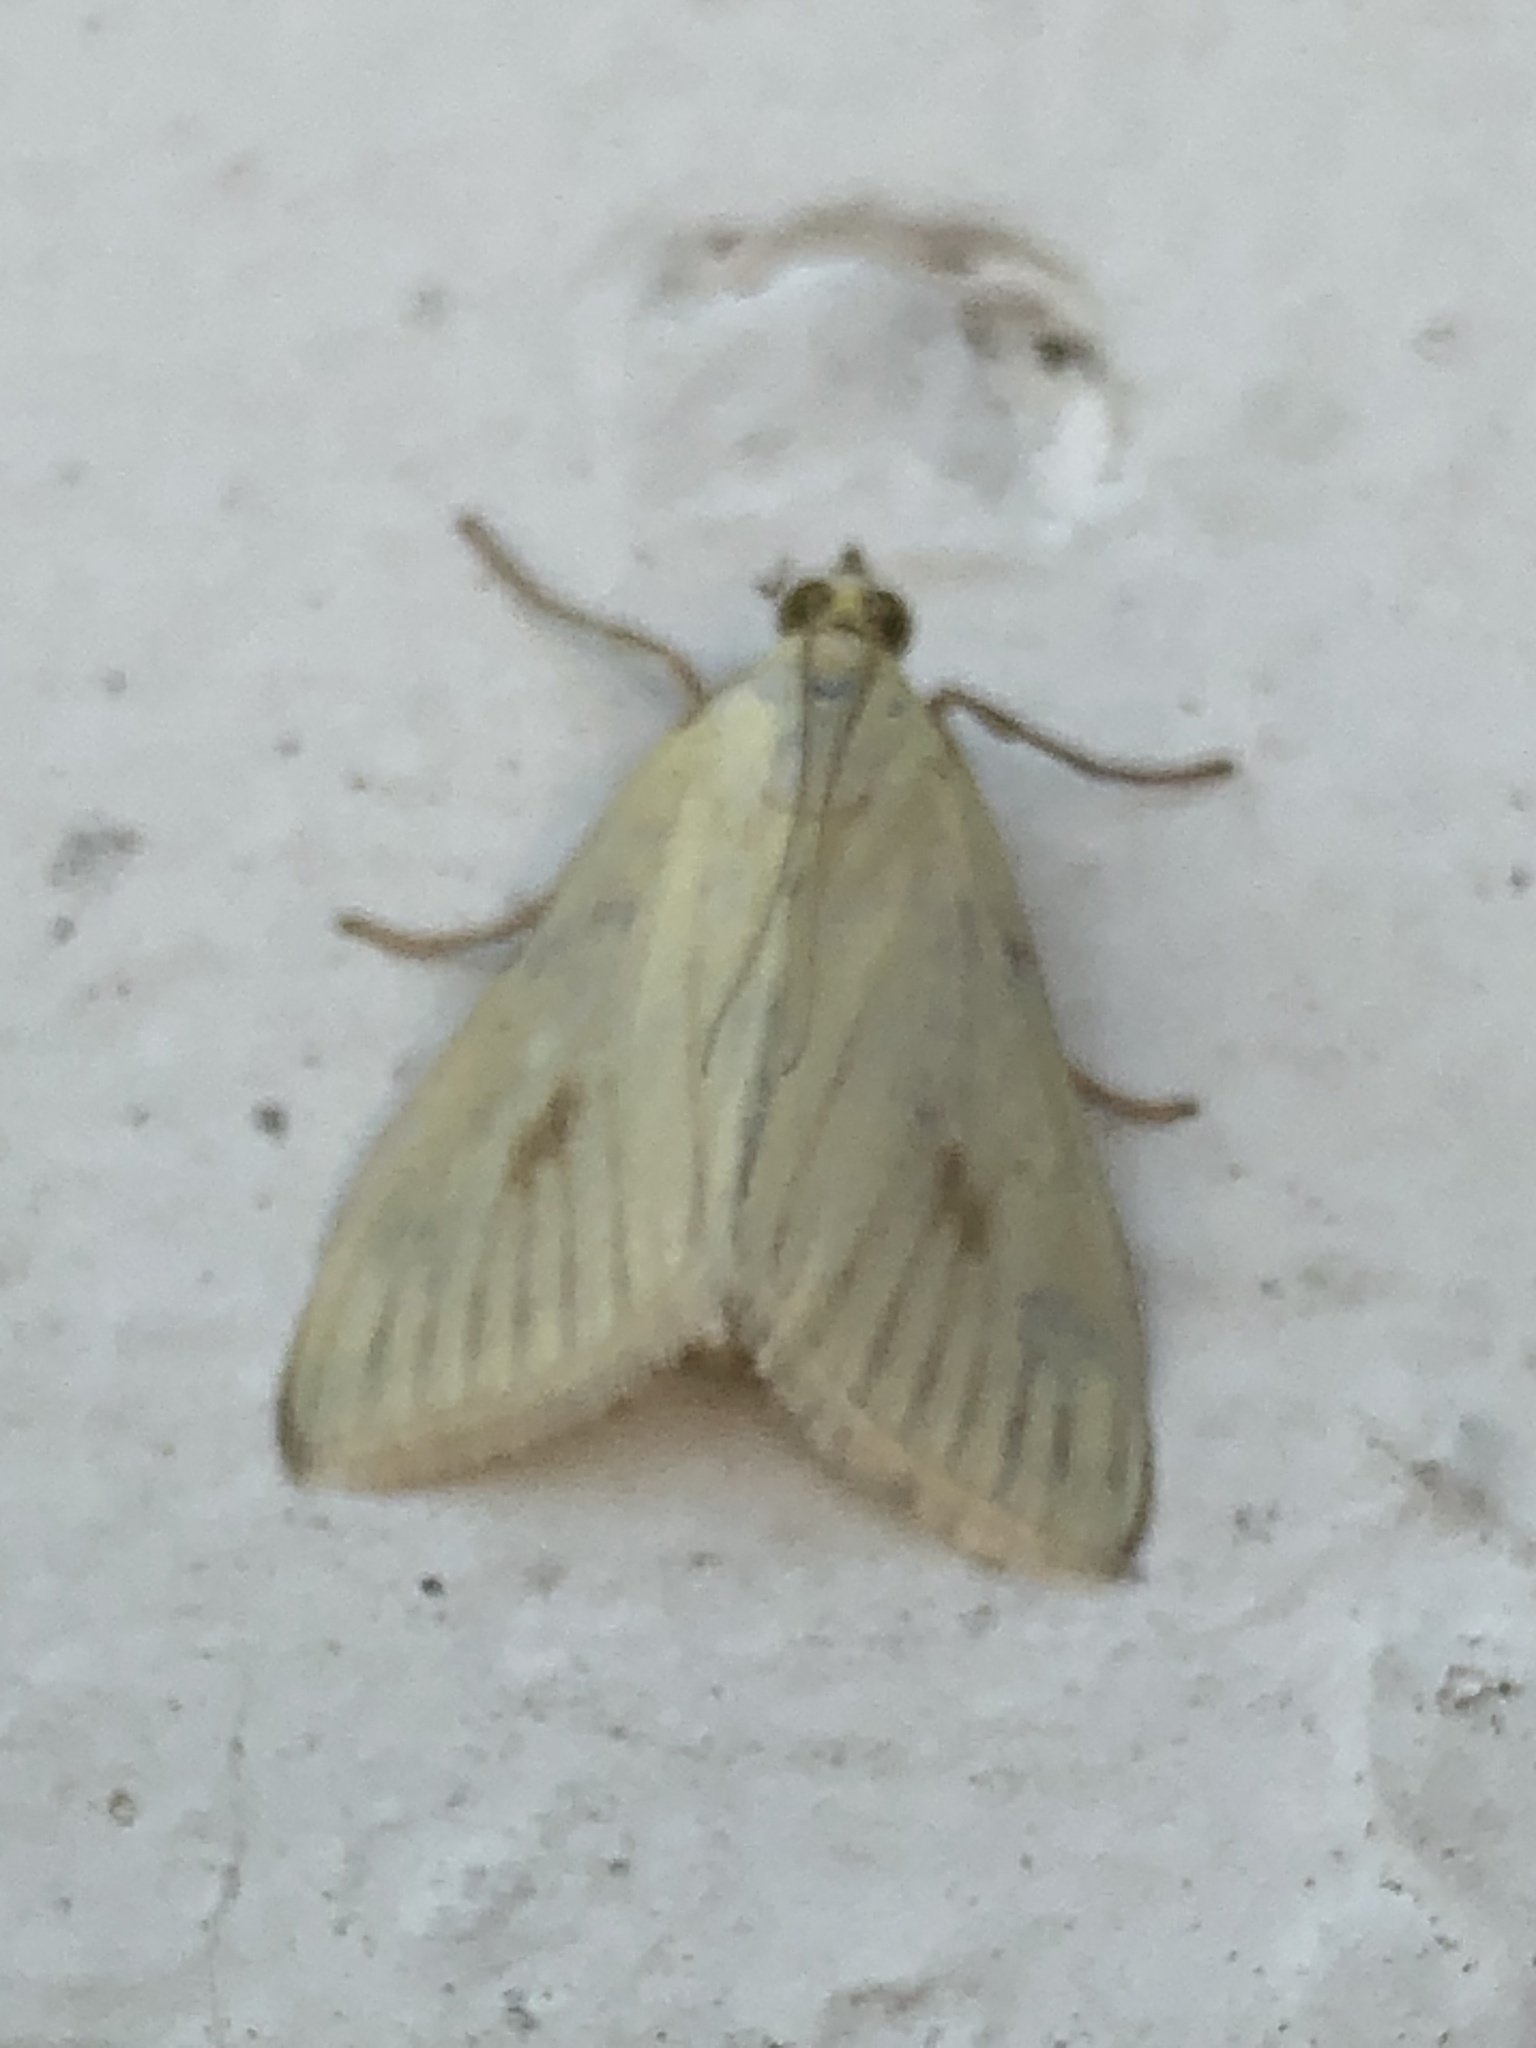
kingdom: Animalia
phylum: Arthropoda
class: Insecta
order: Lepidoptera
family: Crambidae
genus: Sitochroa
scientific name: Sitochroa palealis
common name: Greenish-yellow sitochroa moth
